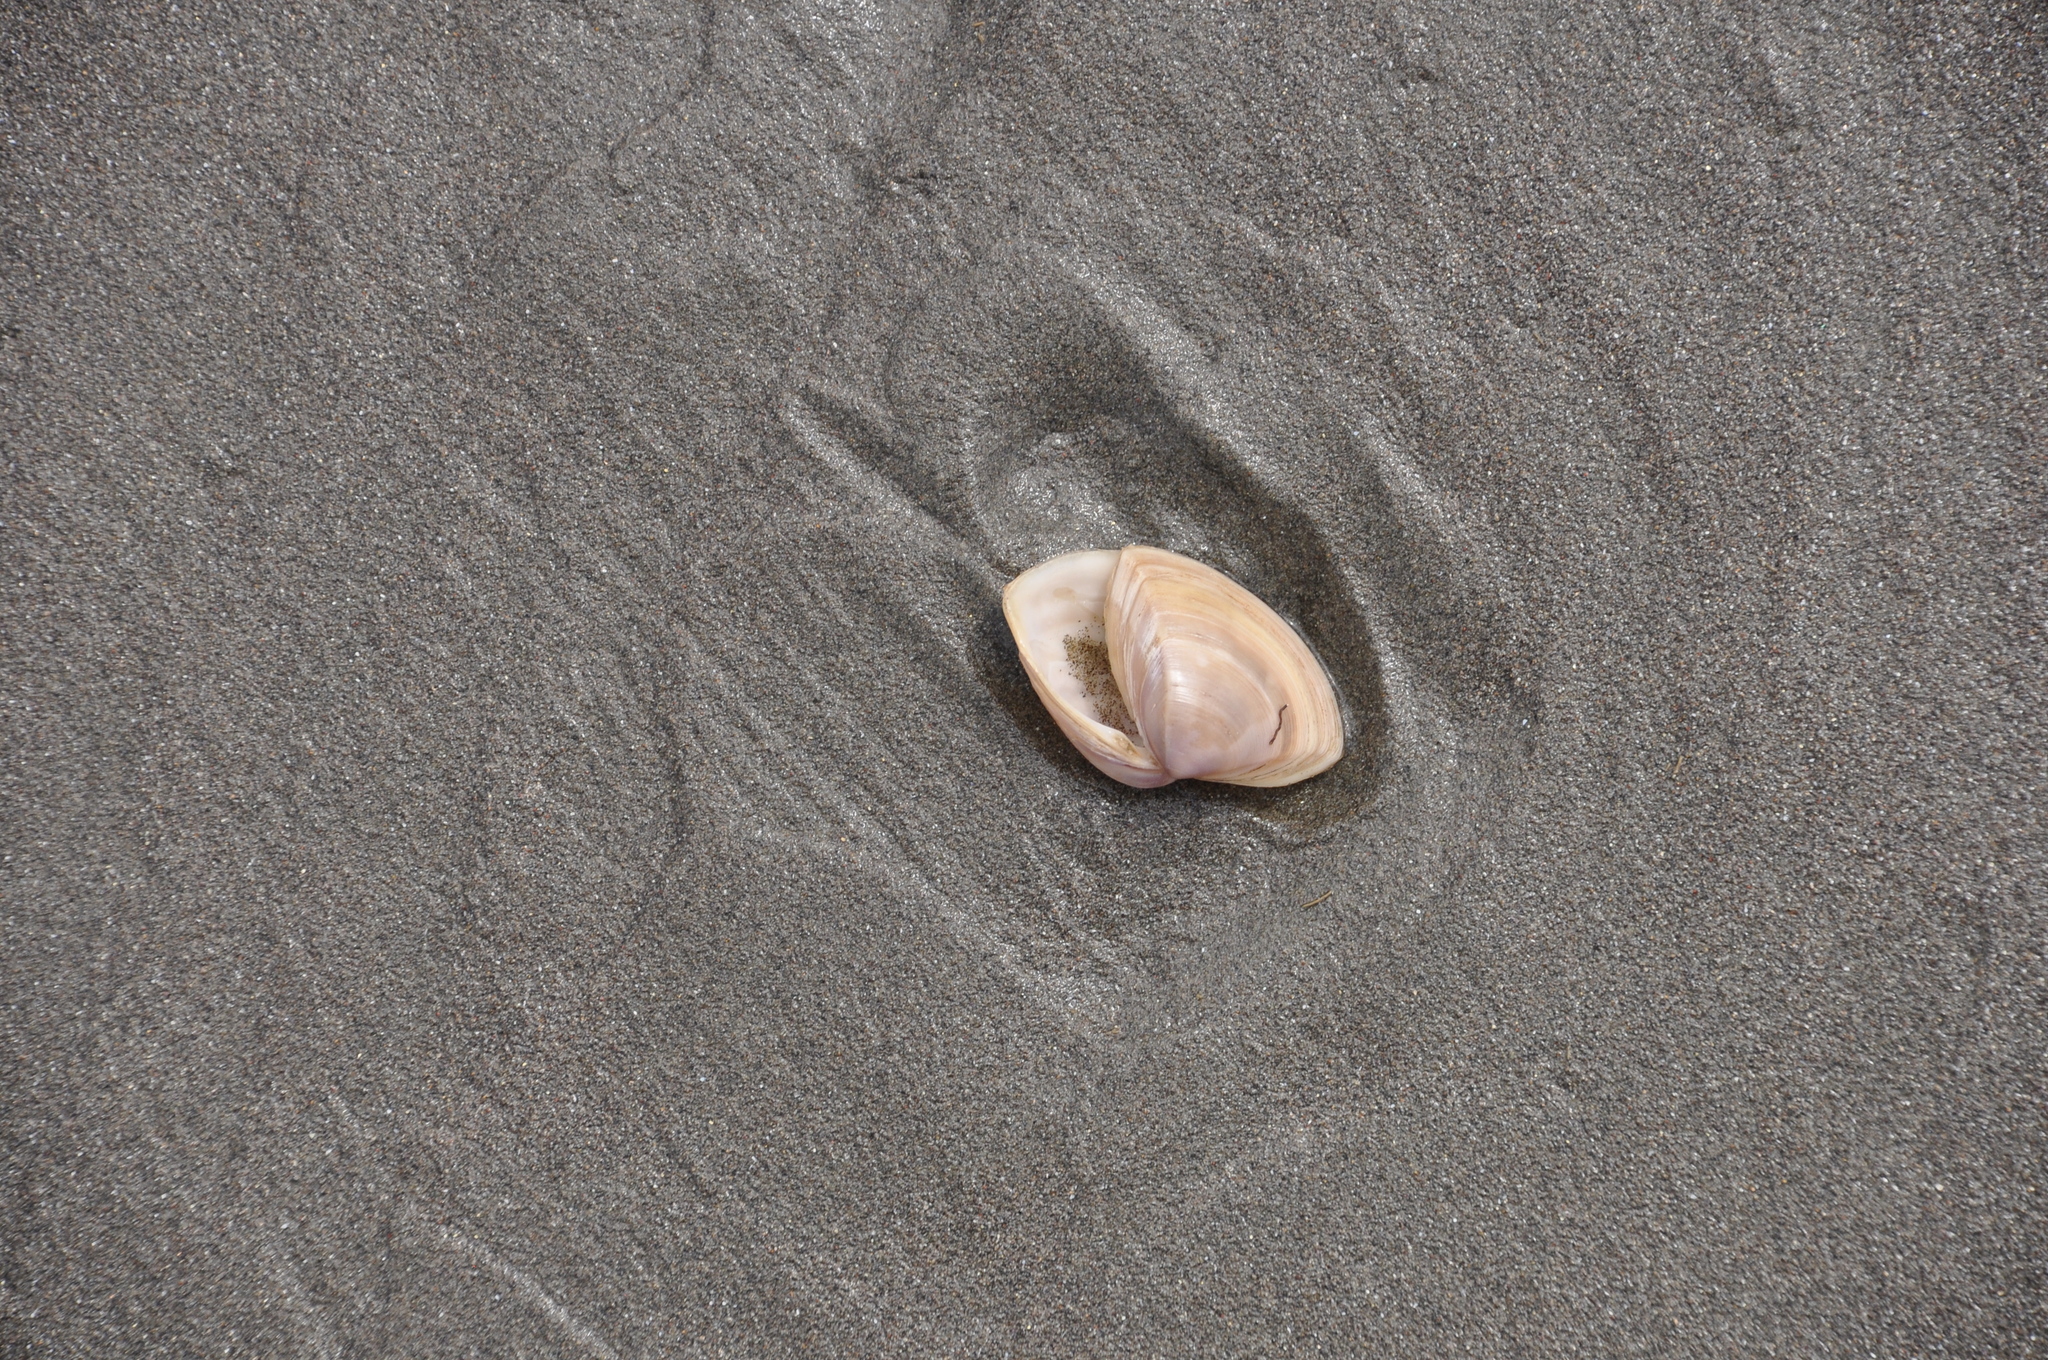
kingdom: Animalia
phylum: Mollusca
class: Bivalvia
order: Venerida
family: Mactridae
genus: Crassula
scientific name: Crassula aequilatera
